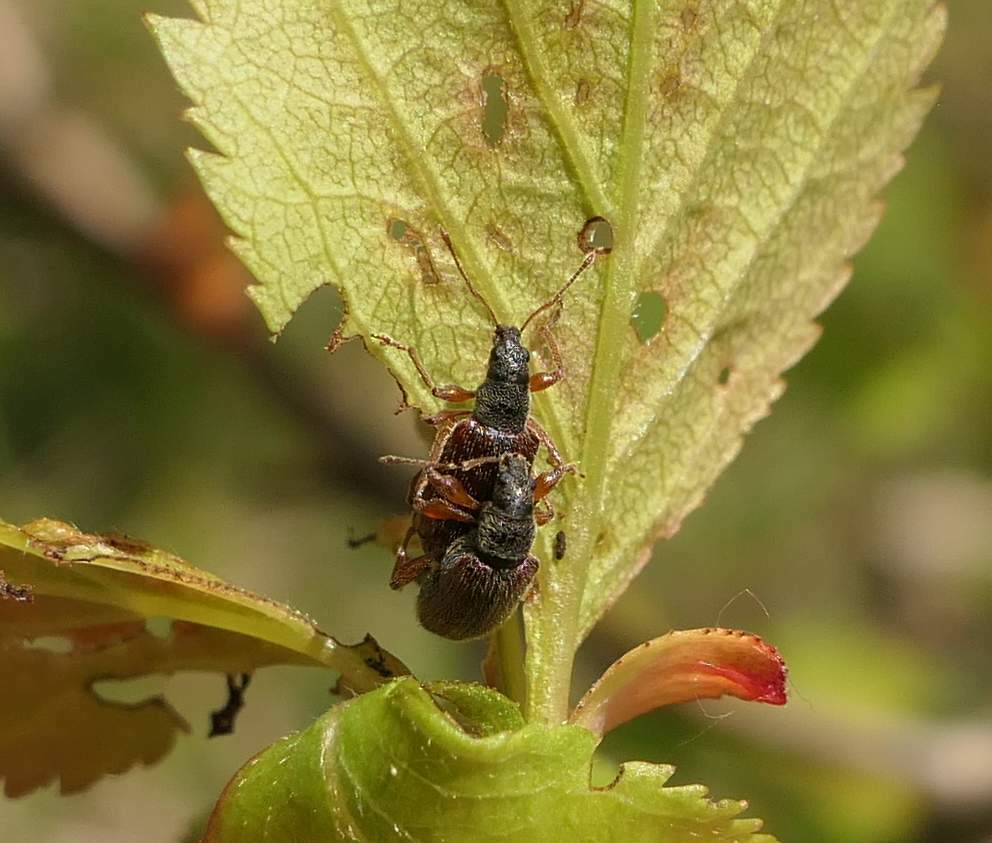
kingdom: Animalia
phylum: Arthropoda
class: Insecta
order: Coleoptera
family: Curculionidae
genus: Phyllobius
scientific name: Phyllobius oblongus
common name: Brown leaf weevil
